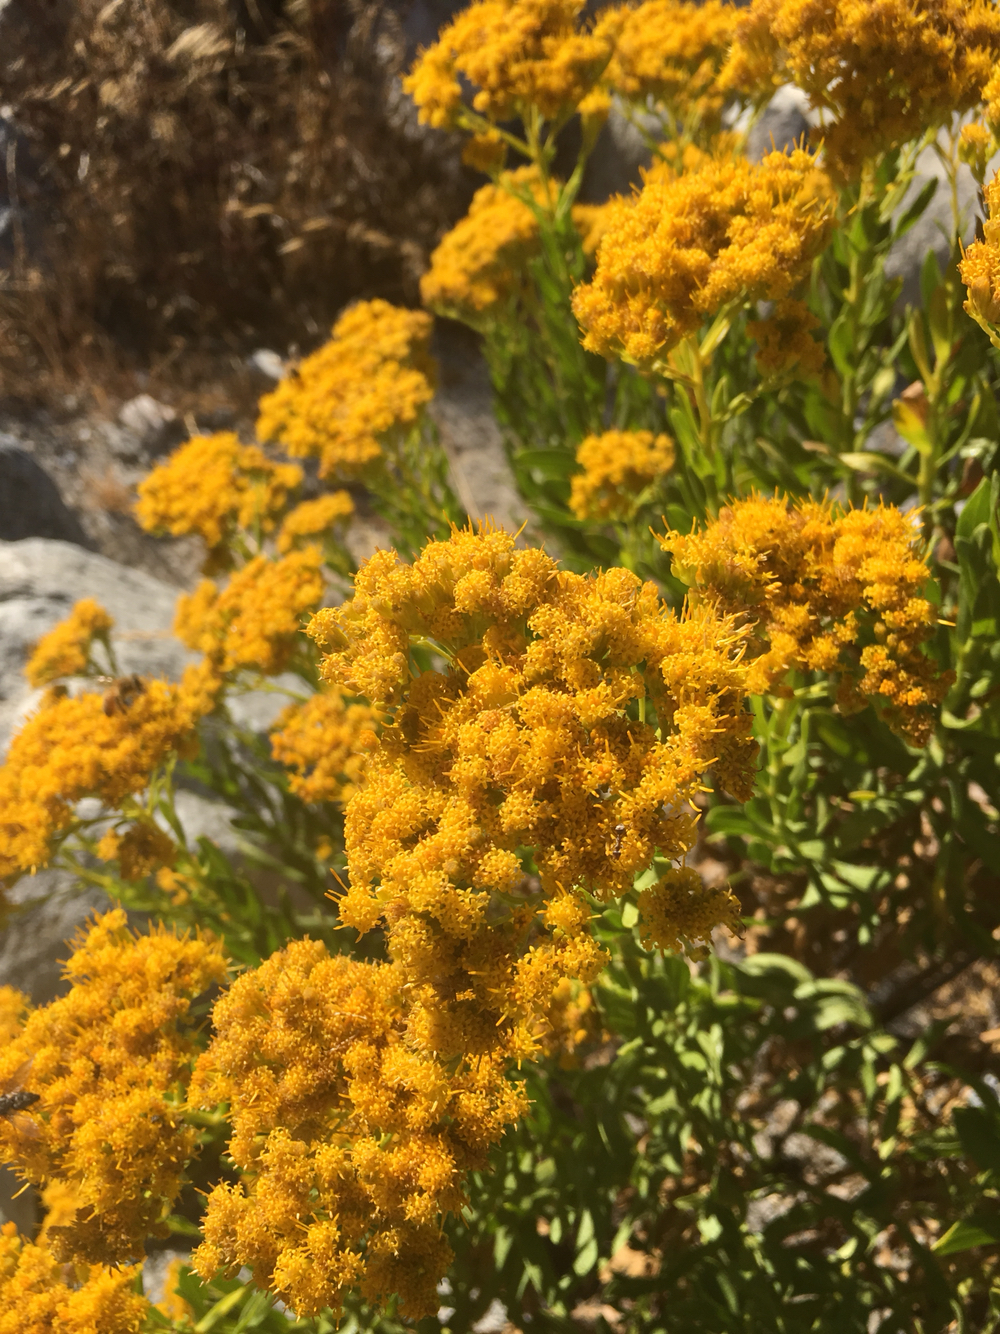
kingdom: Plantae
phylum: Tracheophyta
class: Magnoliopsida
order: Asterales
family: Asteraceae
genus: Ericameria
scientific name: Ericameria parishii
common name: Parish's goldenbush
